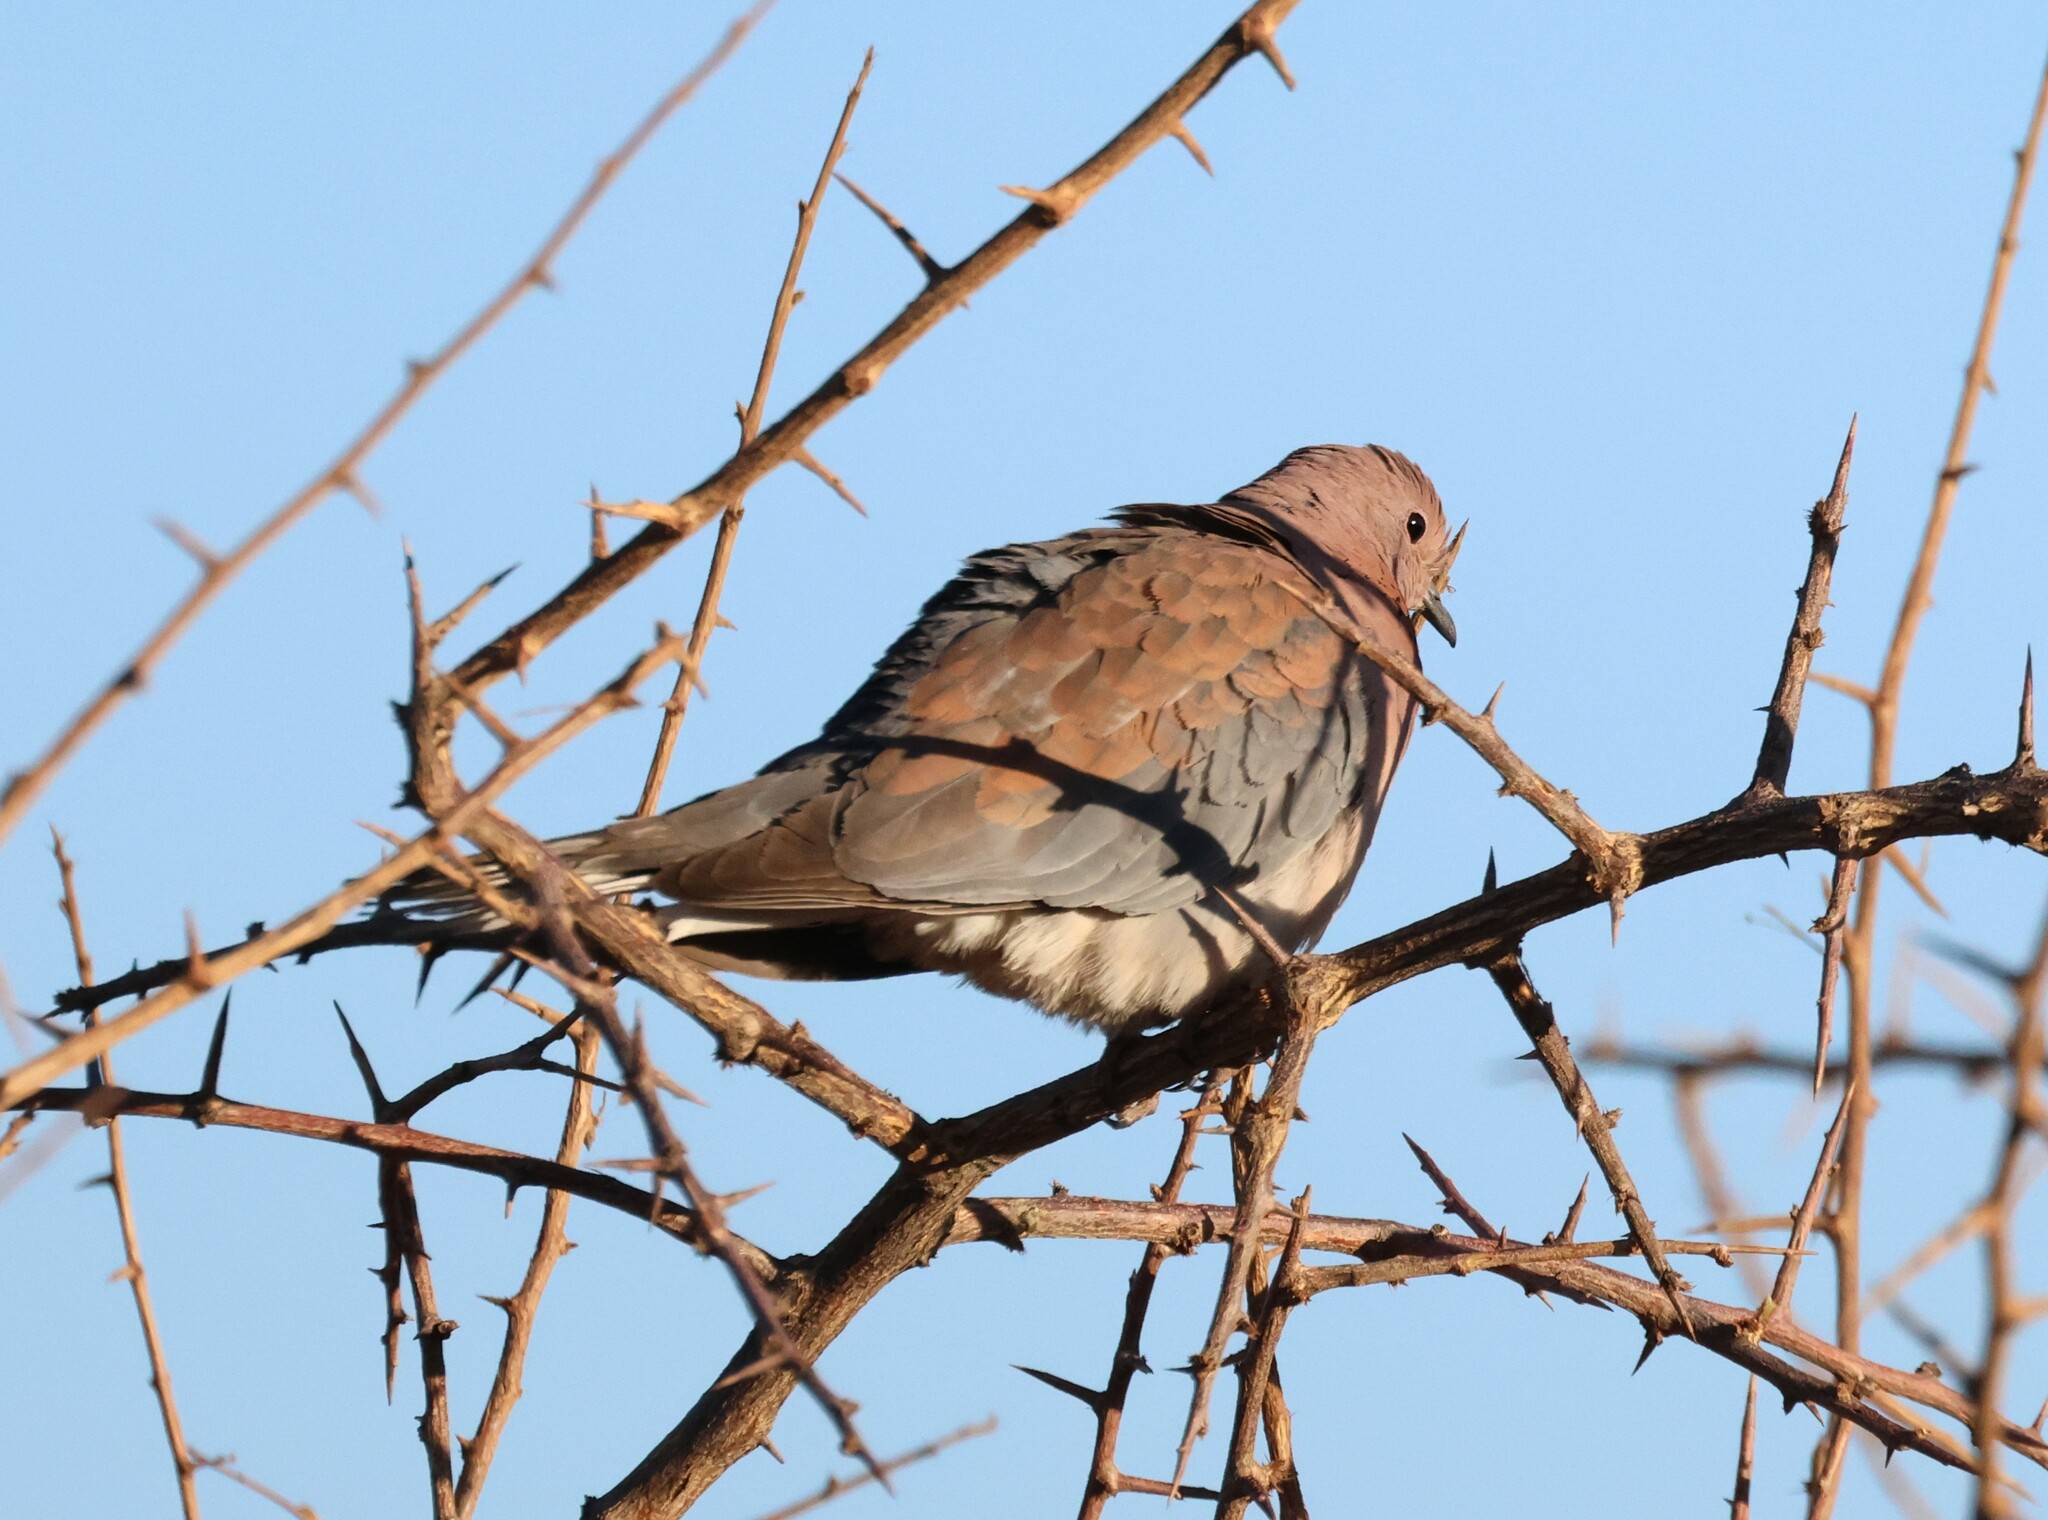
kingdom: Animalia
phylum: Chordata
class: Aves
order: Columbiformes
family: Columbidae
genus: Spilopelia
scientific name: Spilopelia senegalensis
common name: Laughing dove
